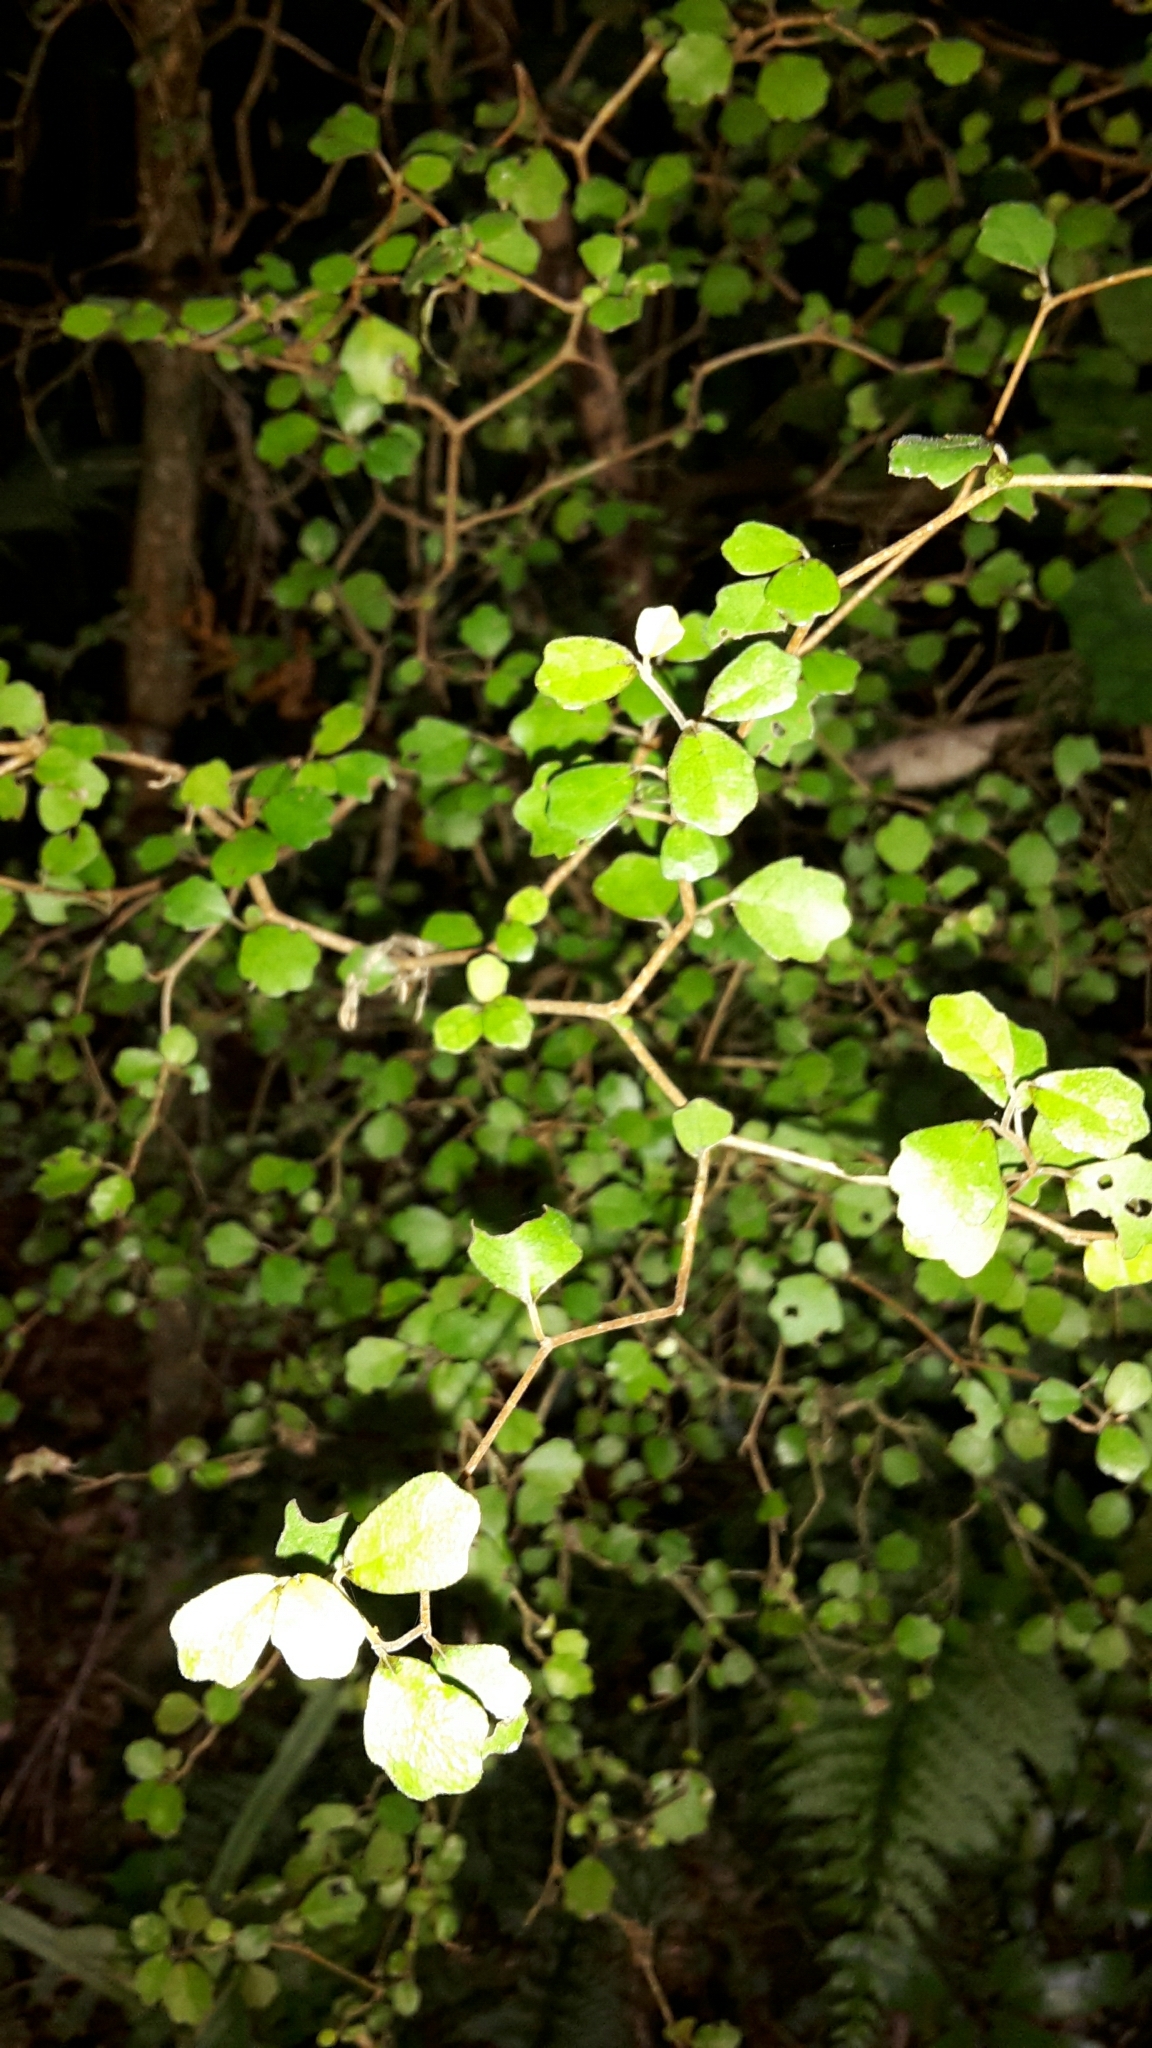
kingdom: Plantae
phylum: Tracheophyta
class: Magnoliopsida
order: Apiales
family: Pennantiaceae
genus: Pennantia
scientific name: Pennantia corymbosa
